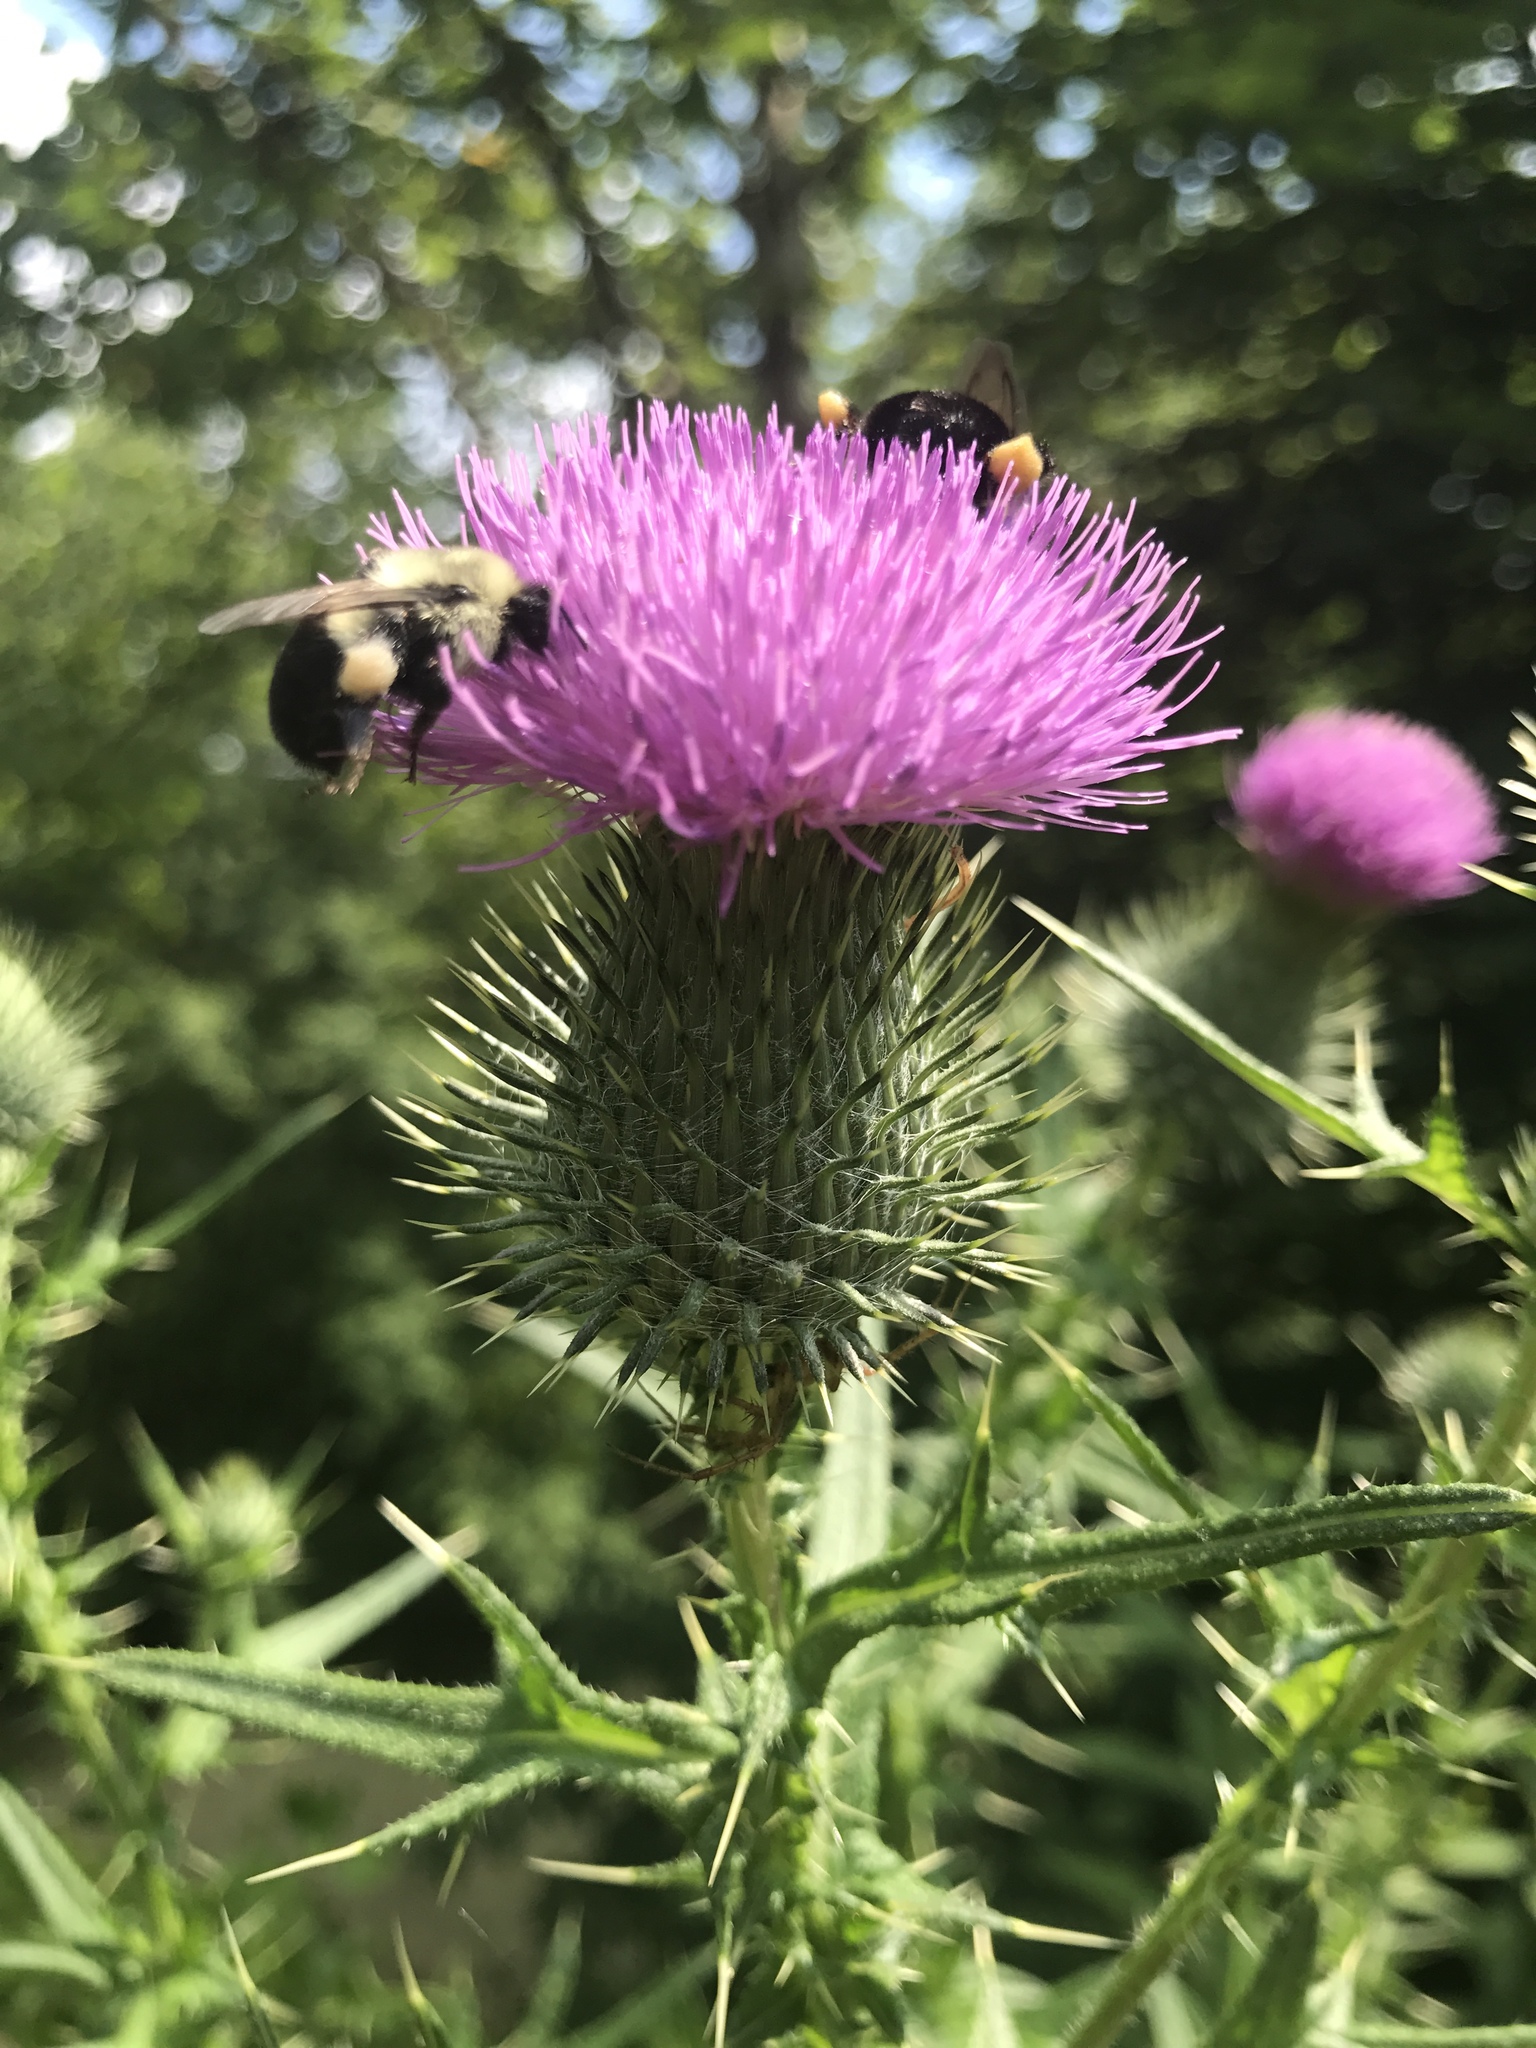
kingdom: Plantae
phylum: Tracheophyta
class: Magnoliopsida
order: Asterales
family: Asteraceae
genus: Cirsium
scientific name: Cirsium vulgare
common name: Bull thistle
